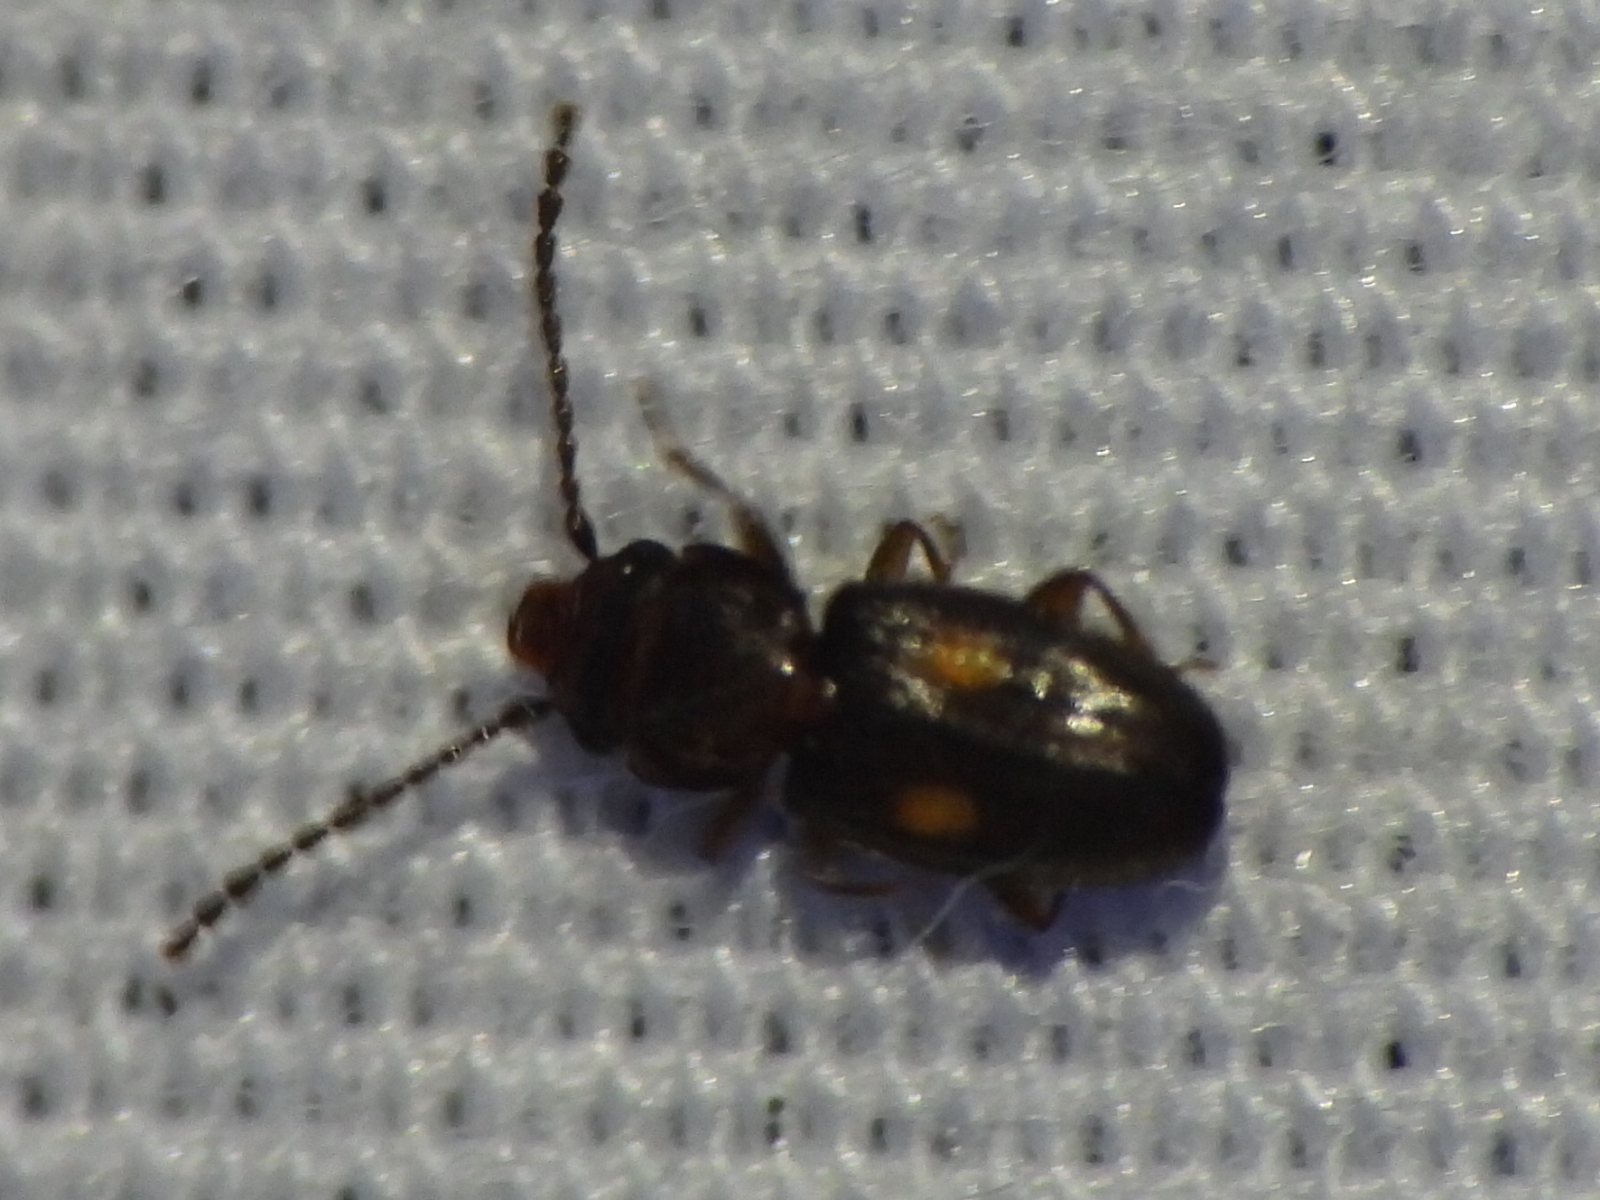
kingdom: Animalia
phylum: Arthropoda
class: Insecta
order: Coleoptera
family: Laemophloeidae
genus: Laemophloeus
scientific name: Laemophloeus biguttatus
